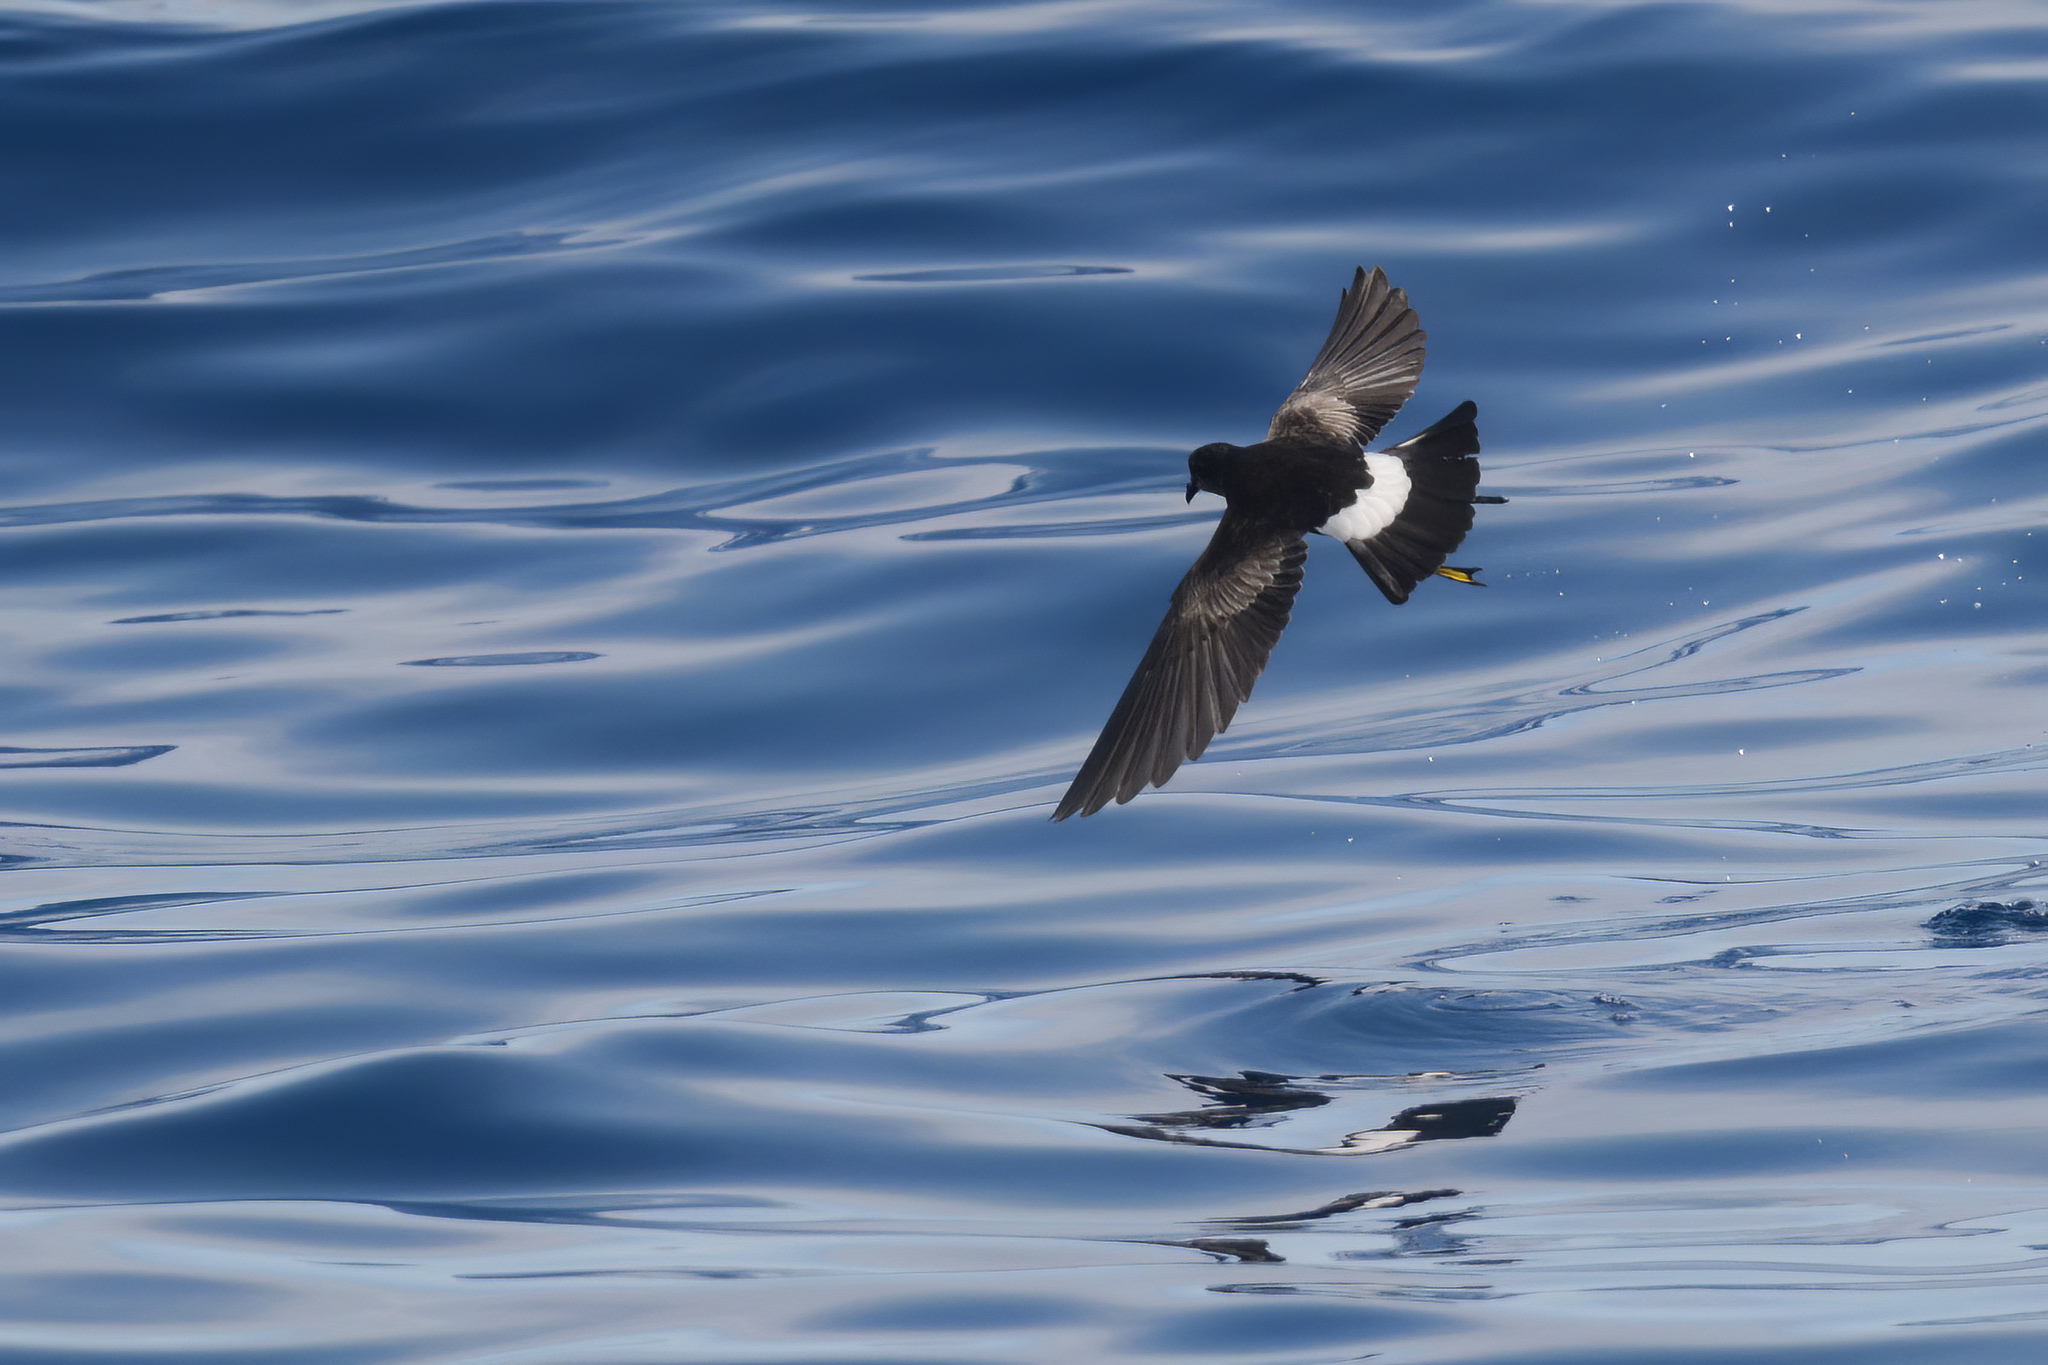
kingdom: Animalia
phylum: Chordata
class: Aves
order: Procellariiformes
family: Hydrobatidae
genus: Oceanites
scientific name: Oceanites oceanicus
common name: Wilson's storm petrel
